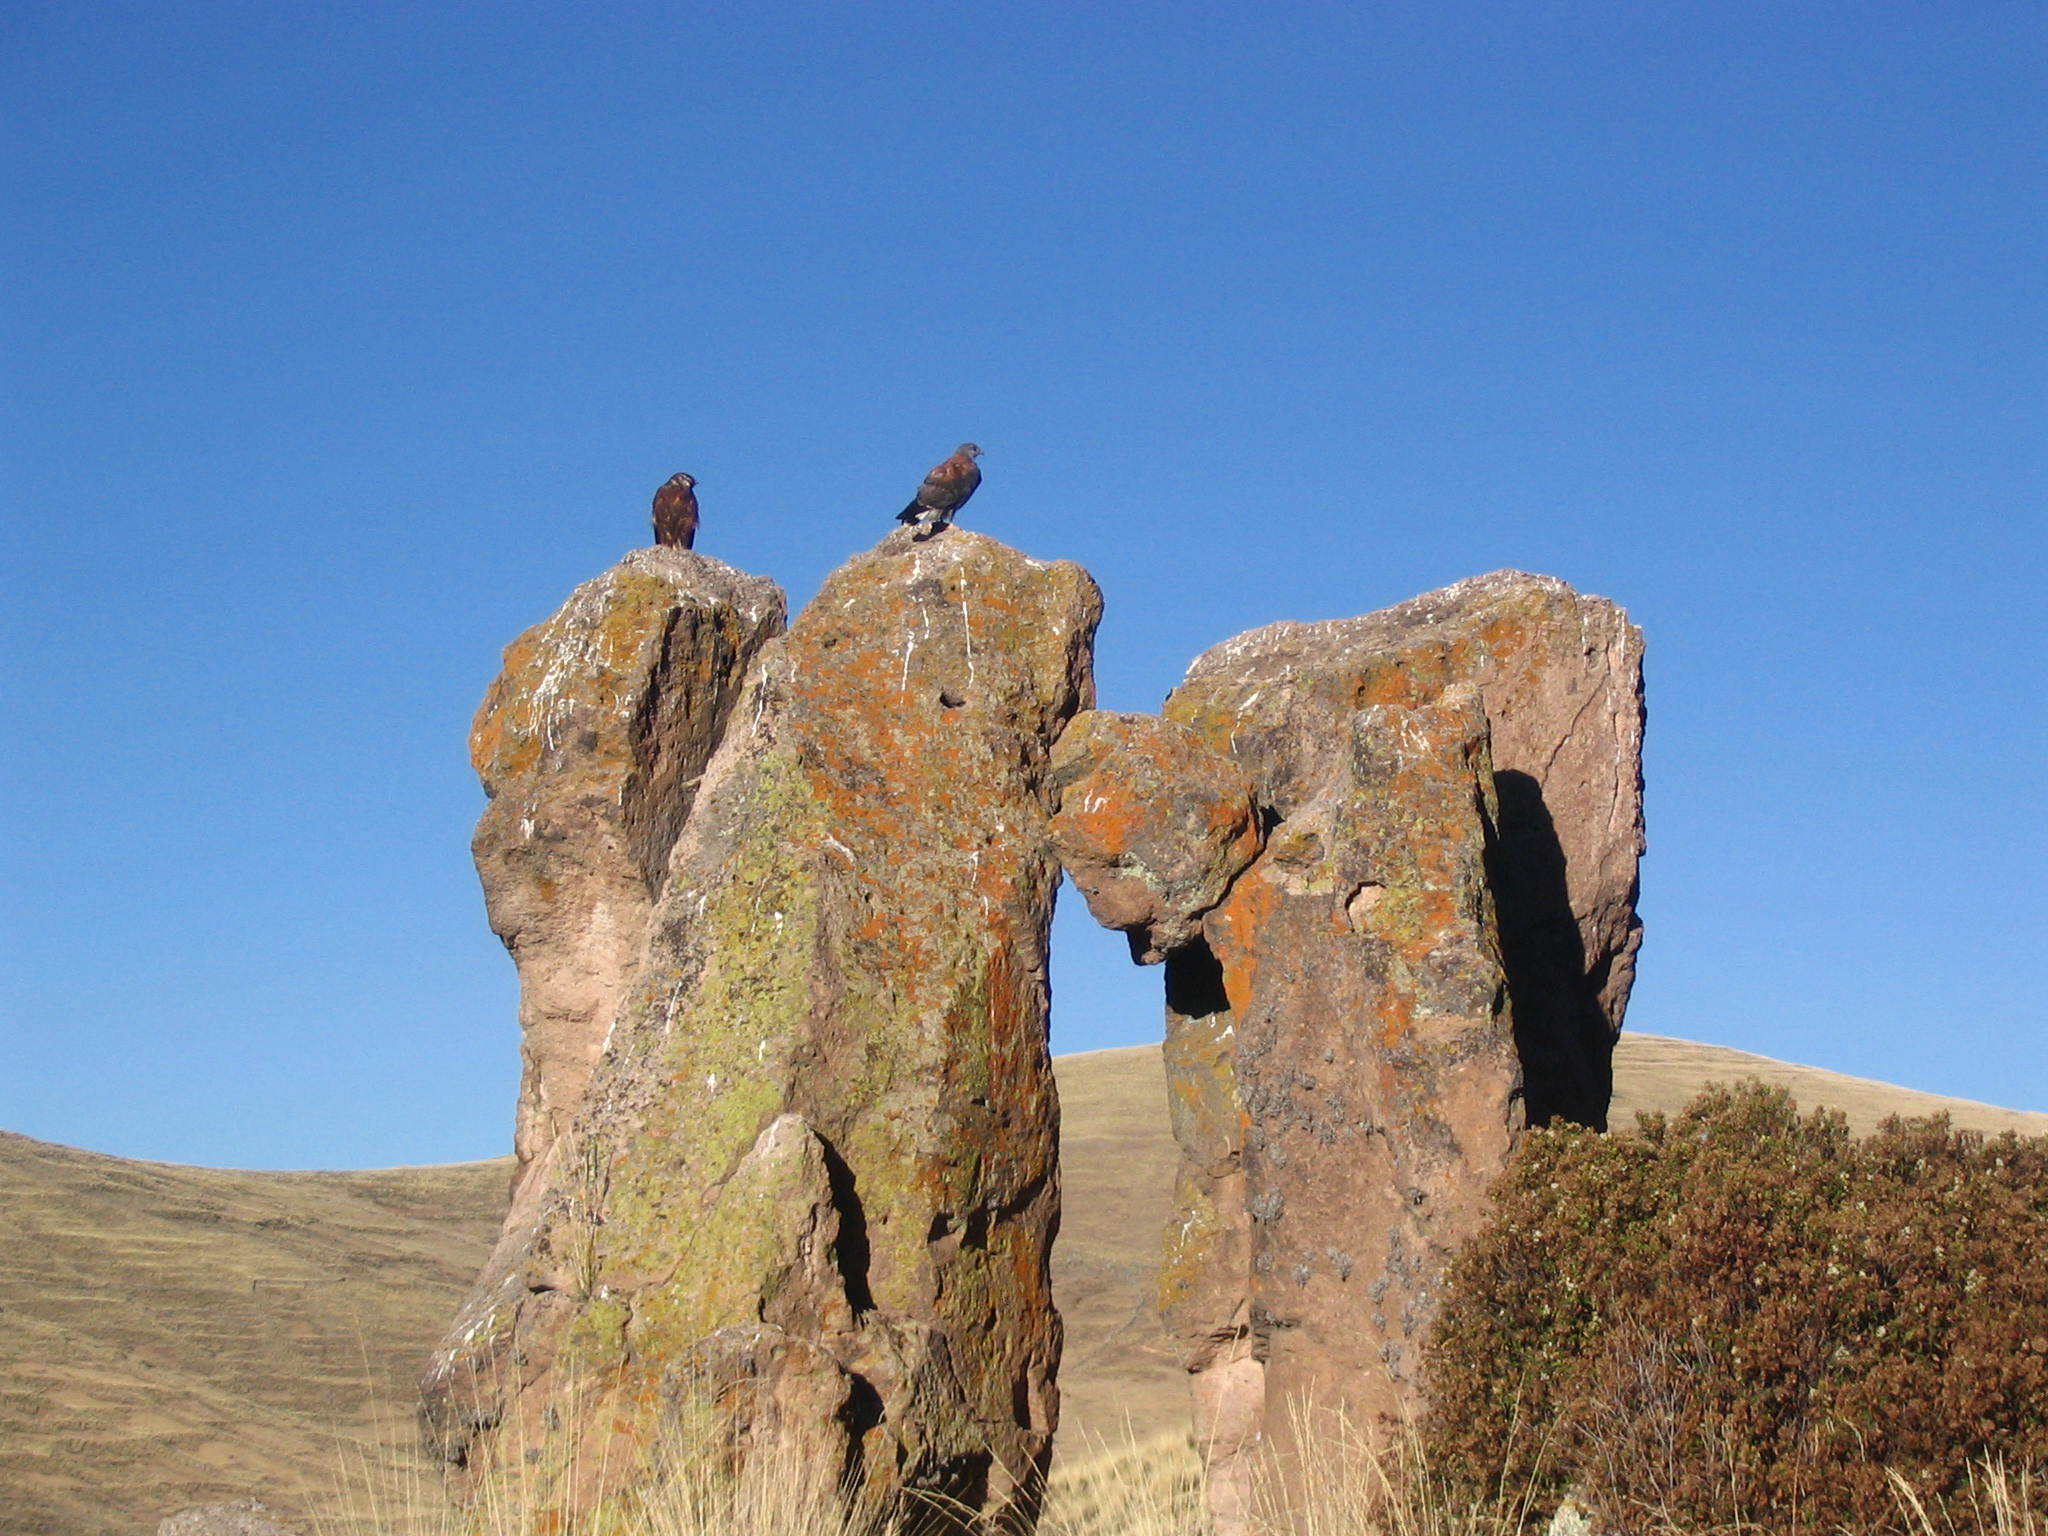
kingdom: Animalia
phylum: Chordata
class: Aves
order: Accipitriformes
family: Accipitridae
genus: Buteo
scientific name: Buteo polyosoma
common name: Variable hawk
